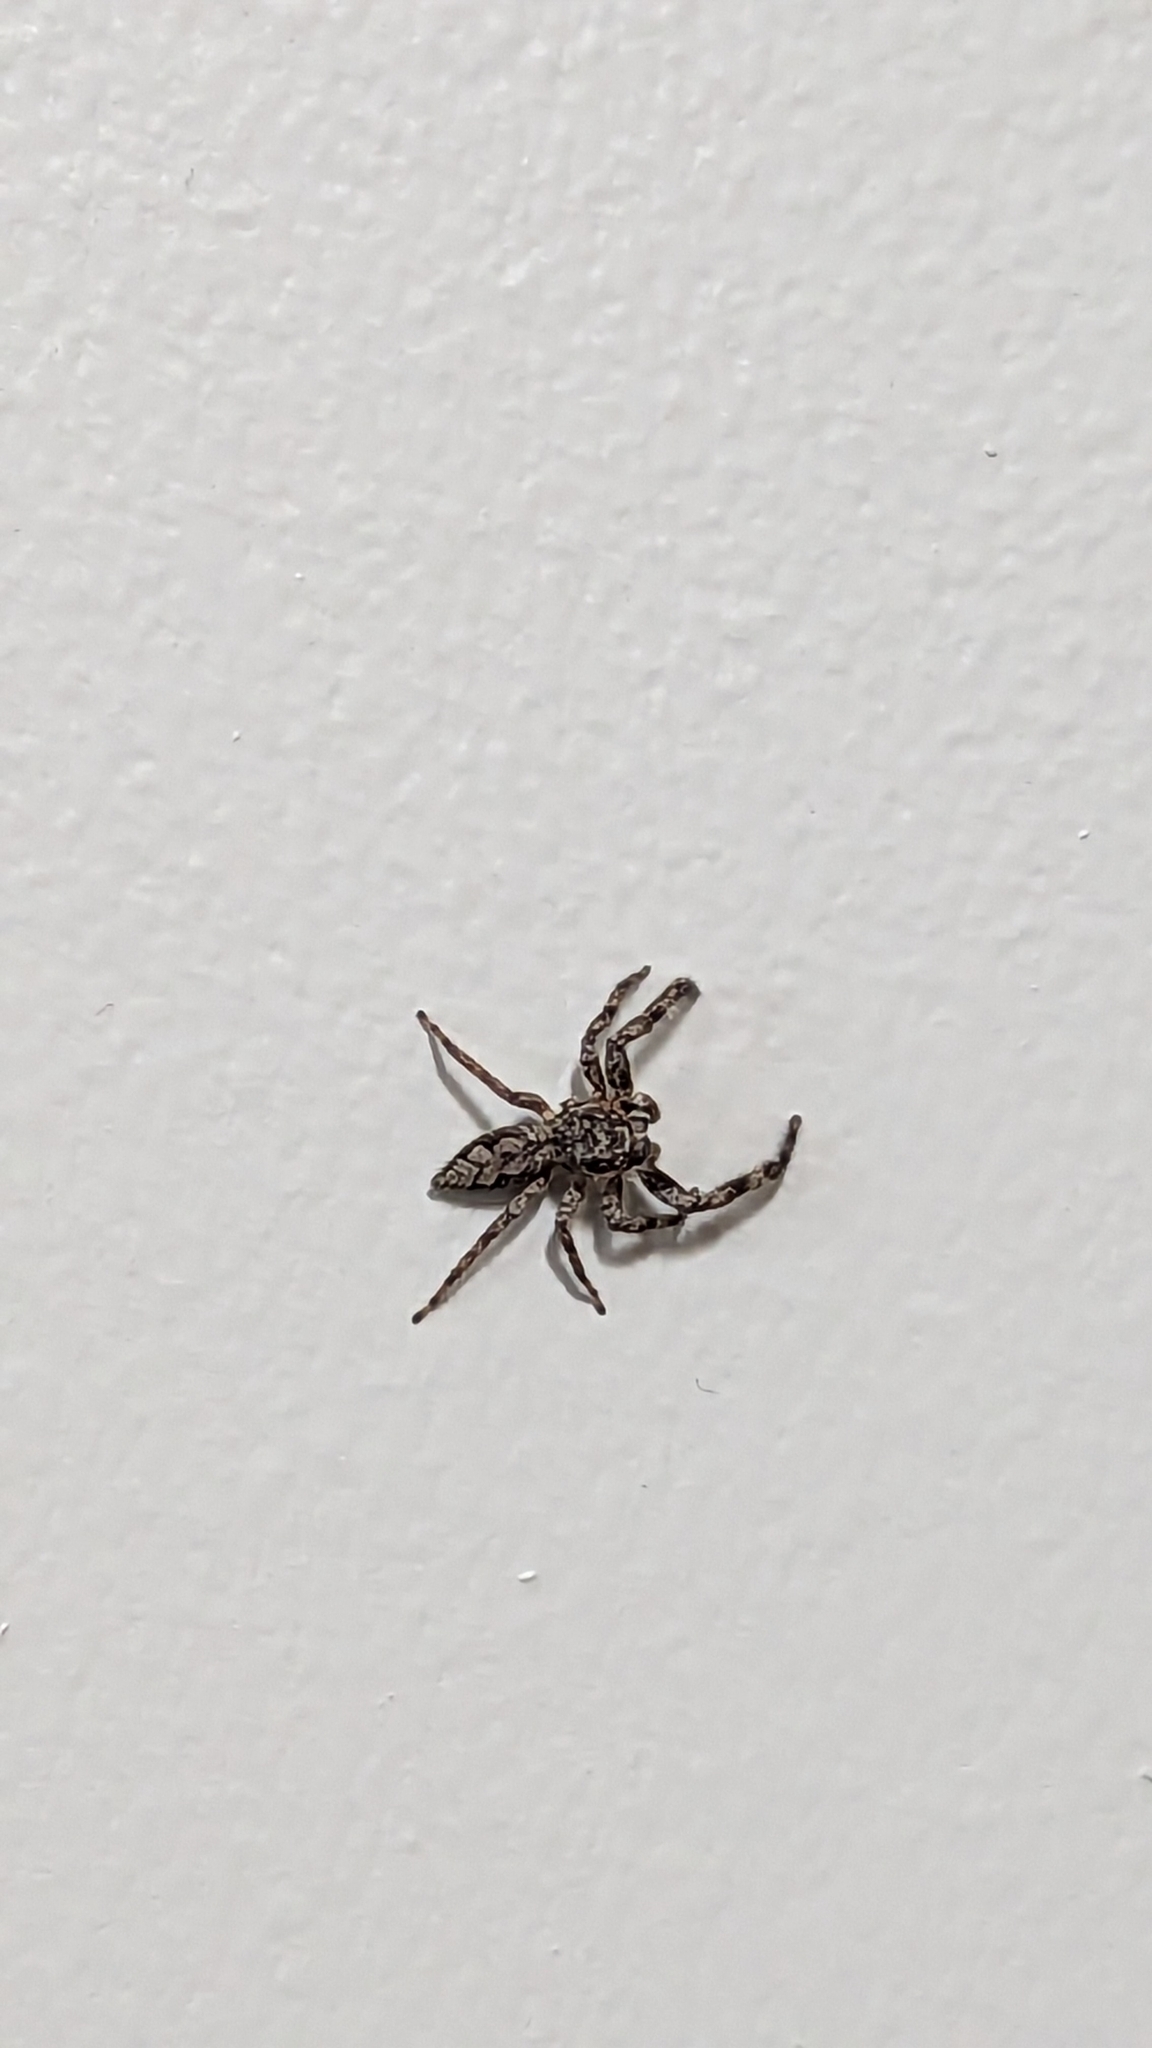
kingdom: Animalia
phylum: Arthropoda
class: Arachnida
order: Araneae
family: Salticidae
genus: Platycryptus
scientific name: Platycryptus undatus
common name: Tan jumping spider
